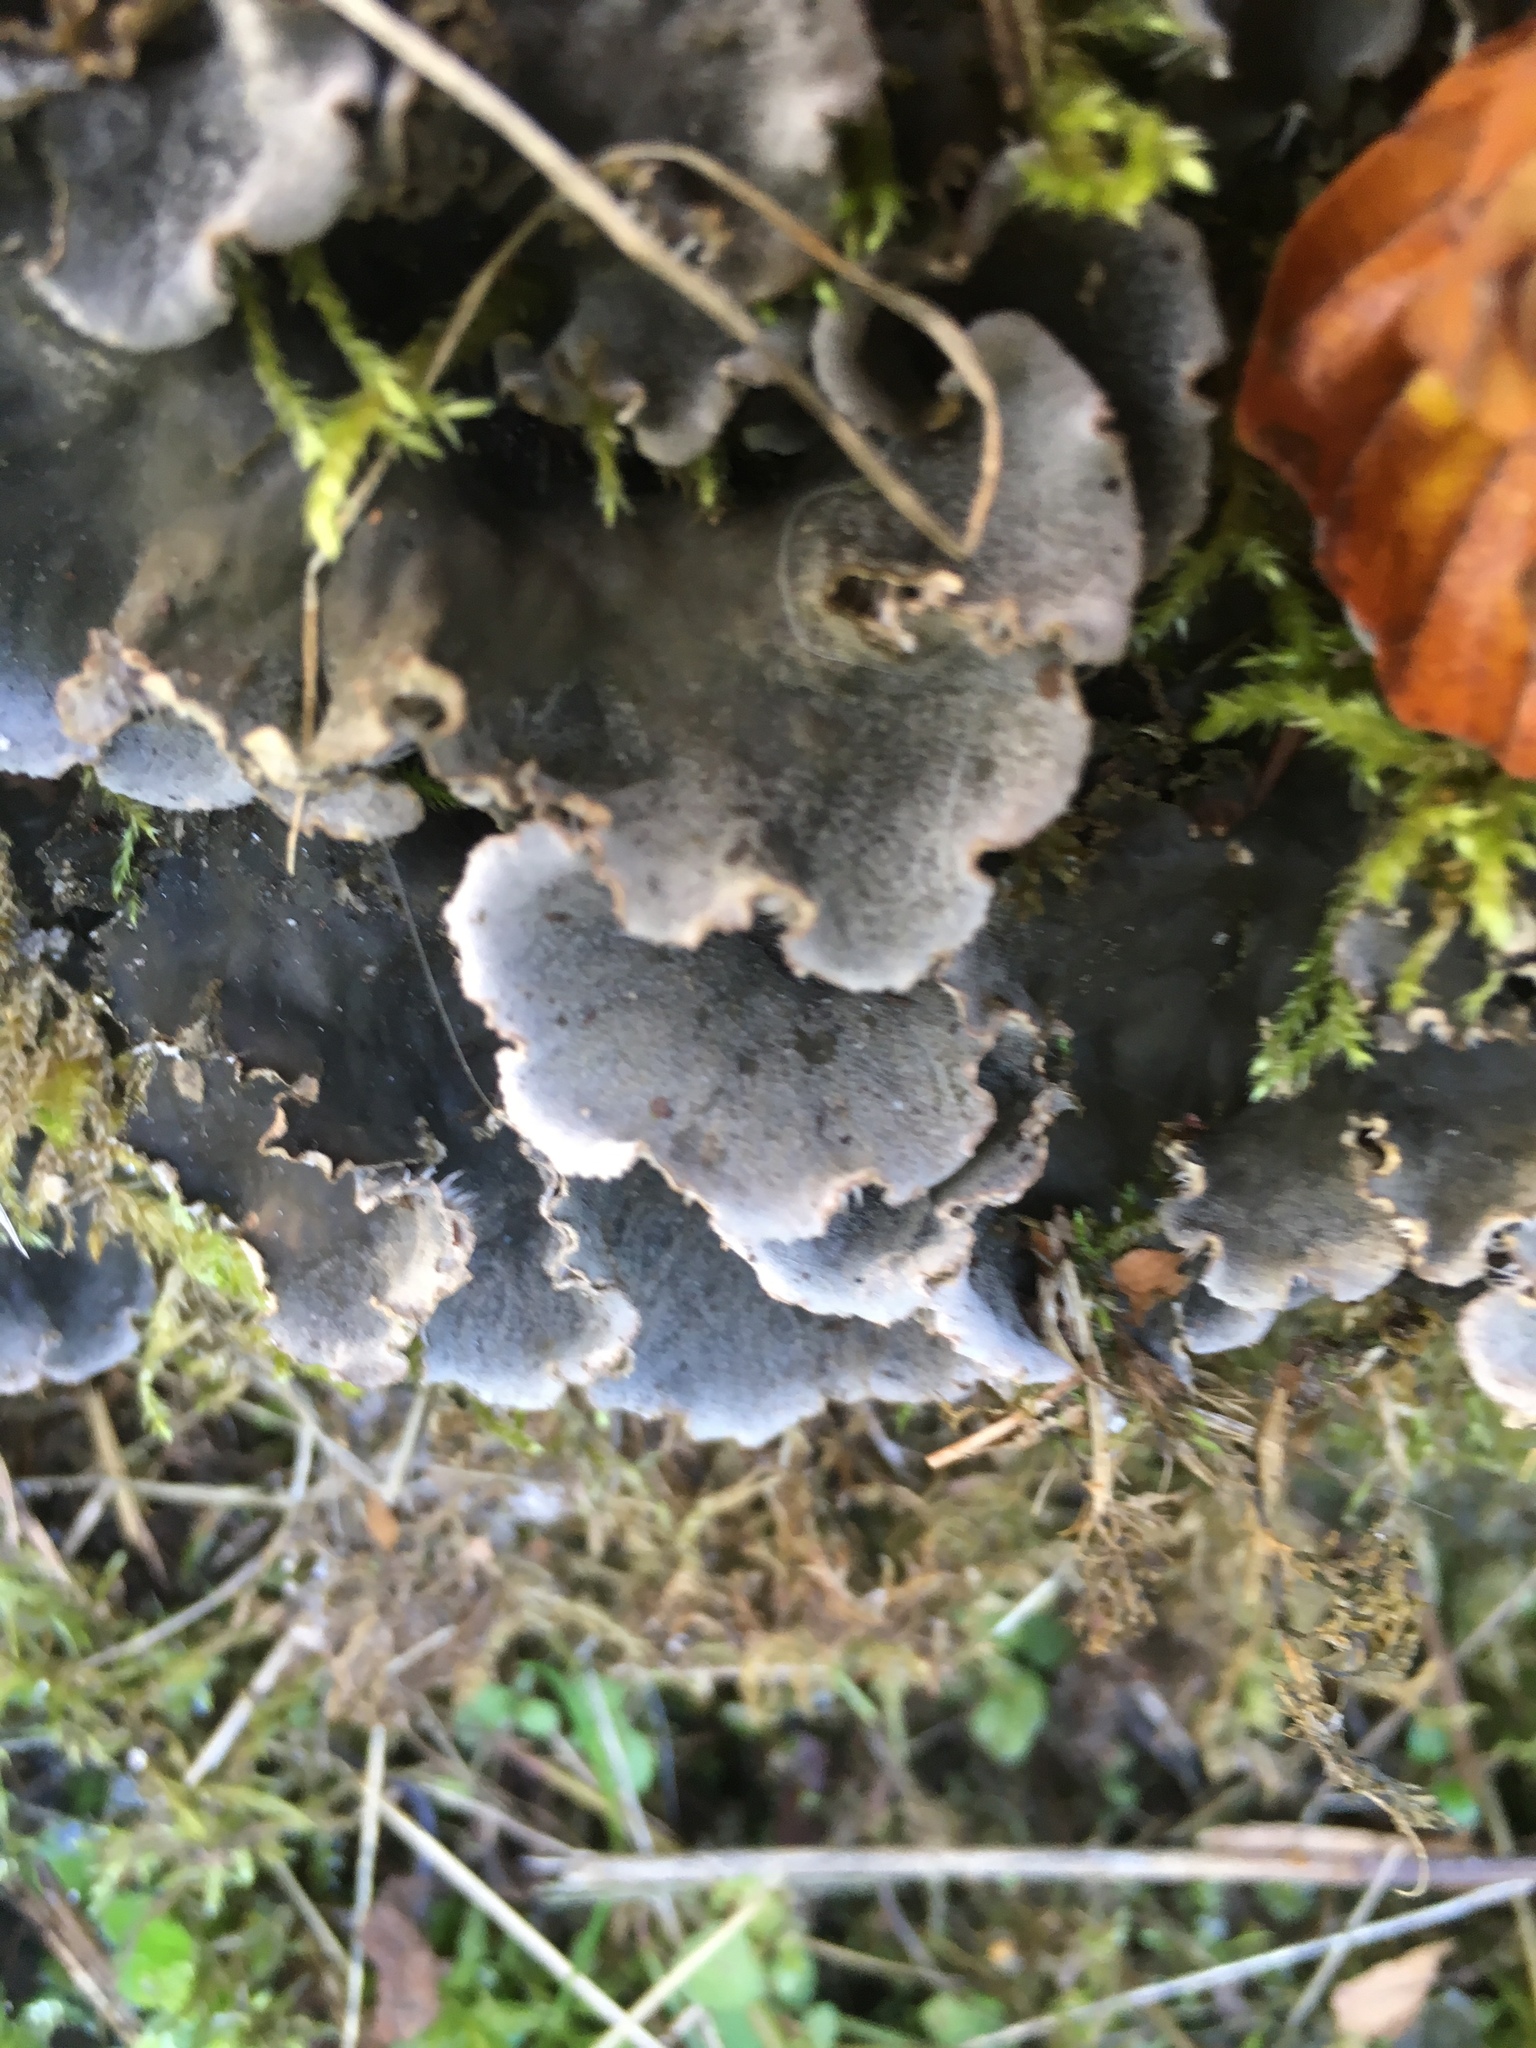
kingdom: Fungi
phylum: Ascomycota
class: Lecanoromycetes
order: Peltigerales
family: Peltigeraceae
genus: Peltigera
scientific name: Peltigera praetextata
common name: Scaly dog-lichen
